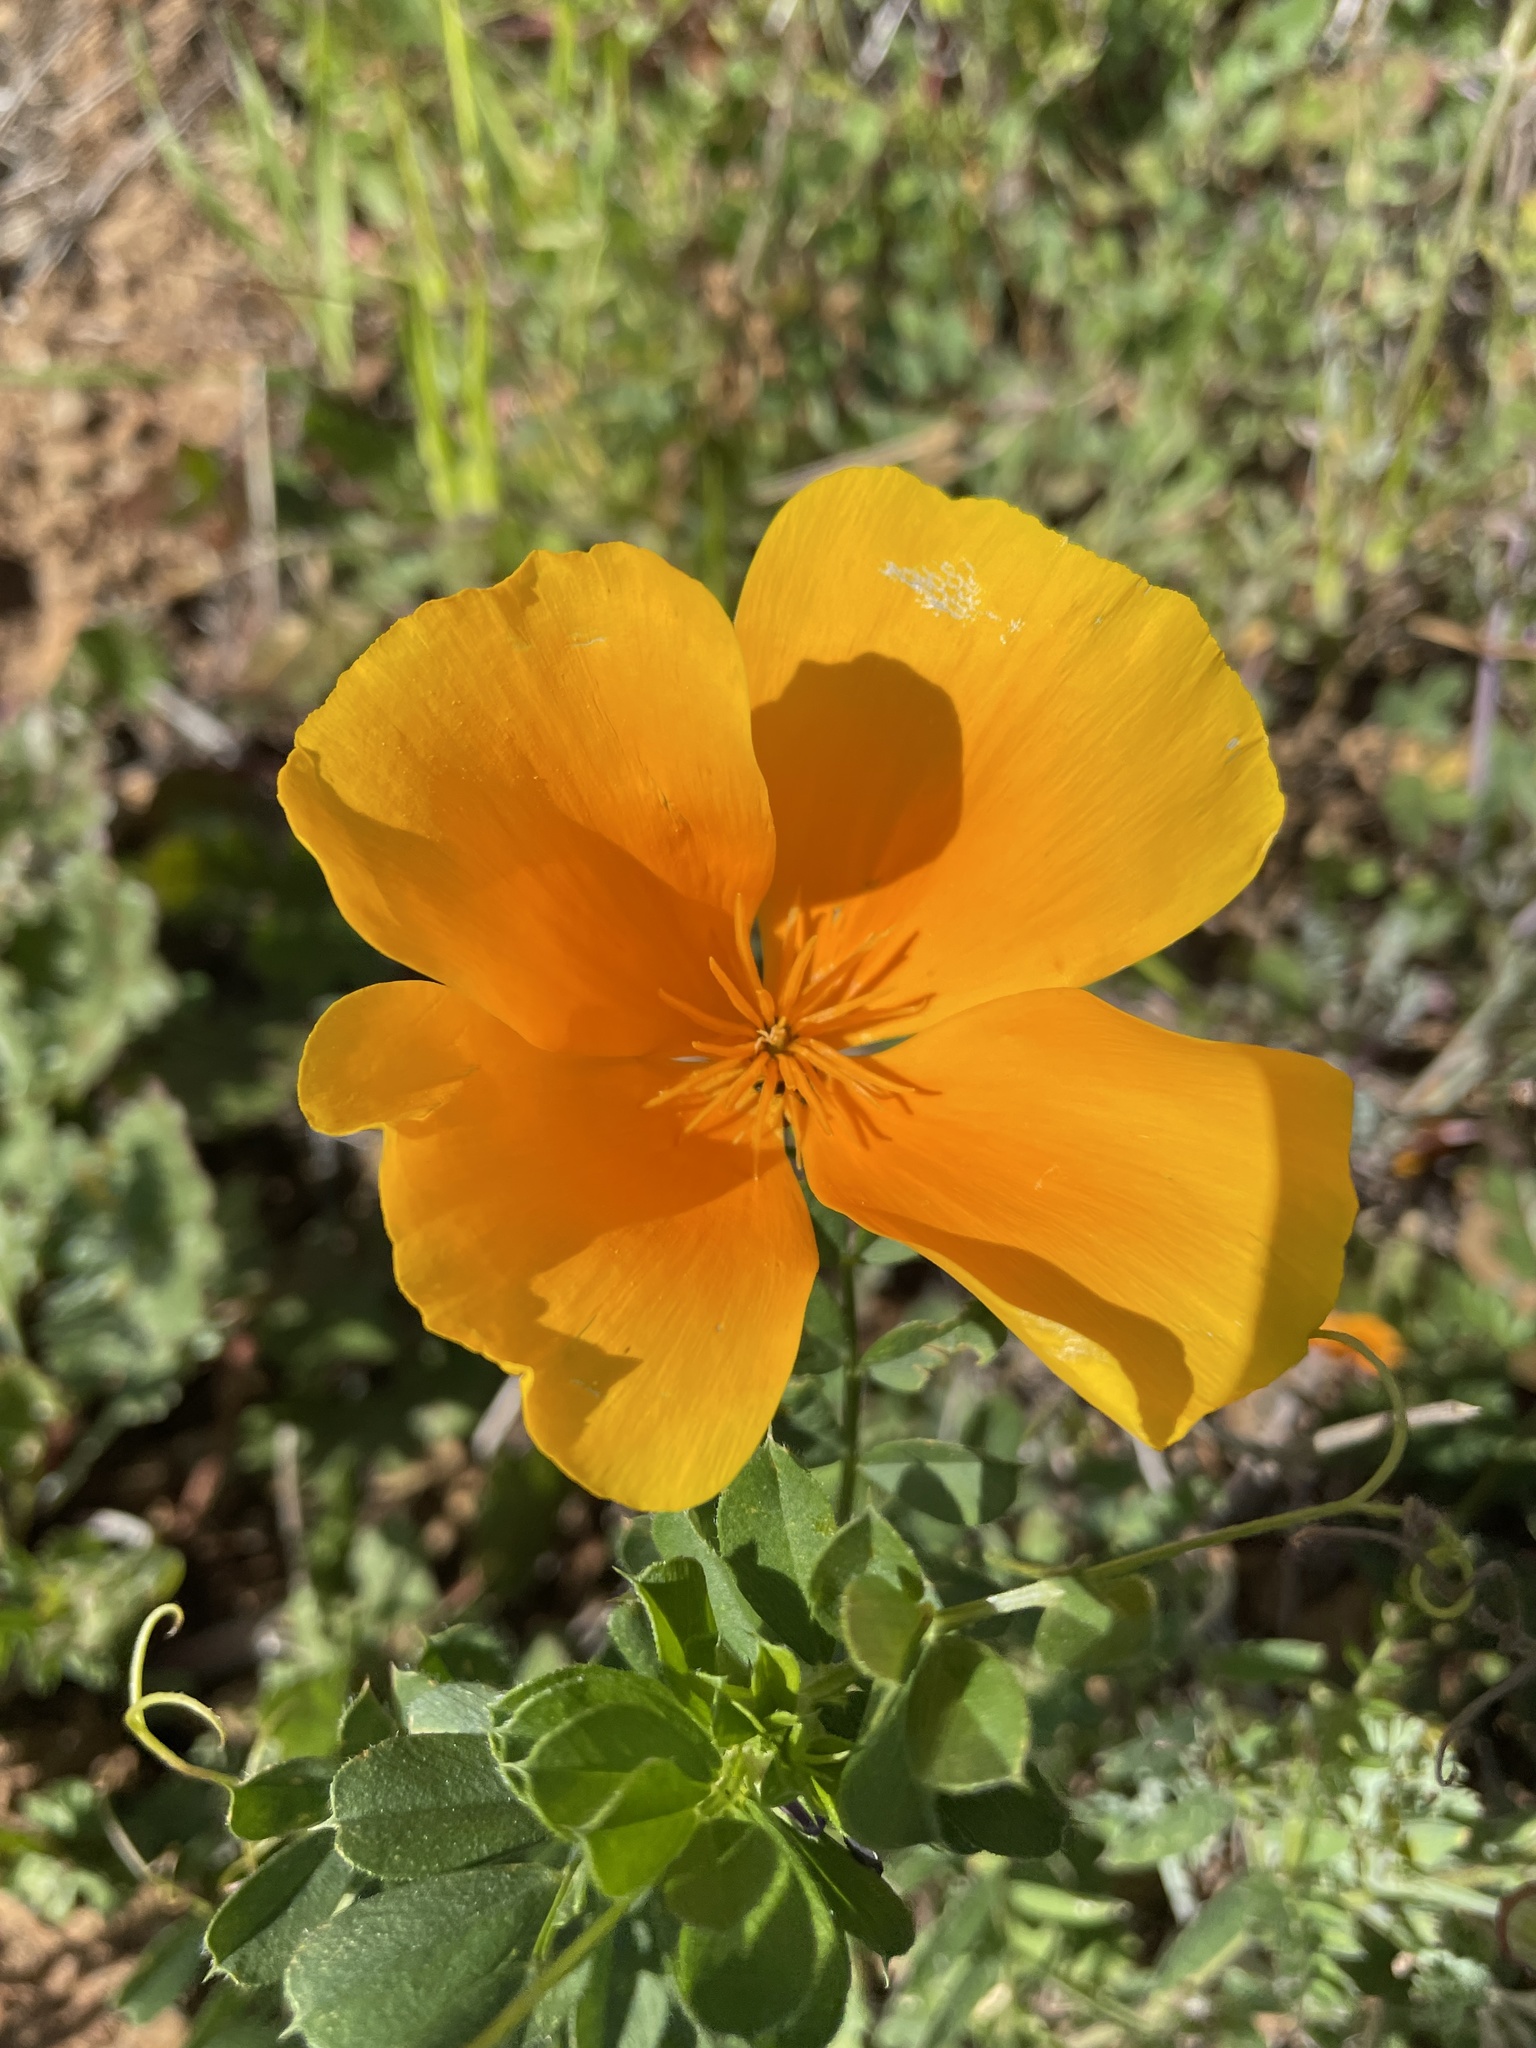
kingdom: Plantae
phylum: Tracheophyta
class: Magnoliopsida
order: Ranunculales
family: Papaveraceae
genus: Eschscholzia
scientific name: Eschscholzia californica
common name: California poppy
